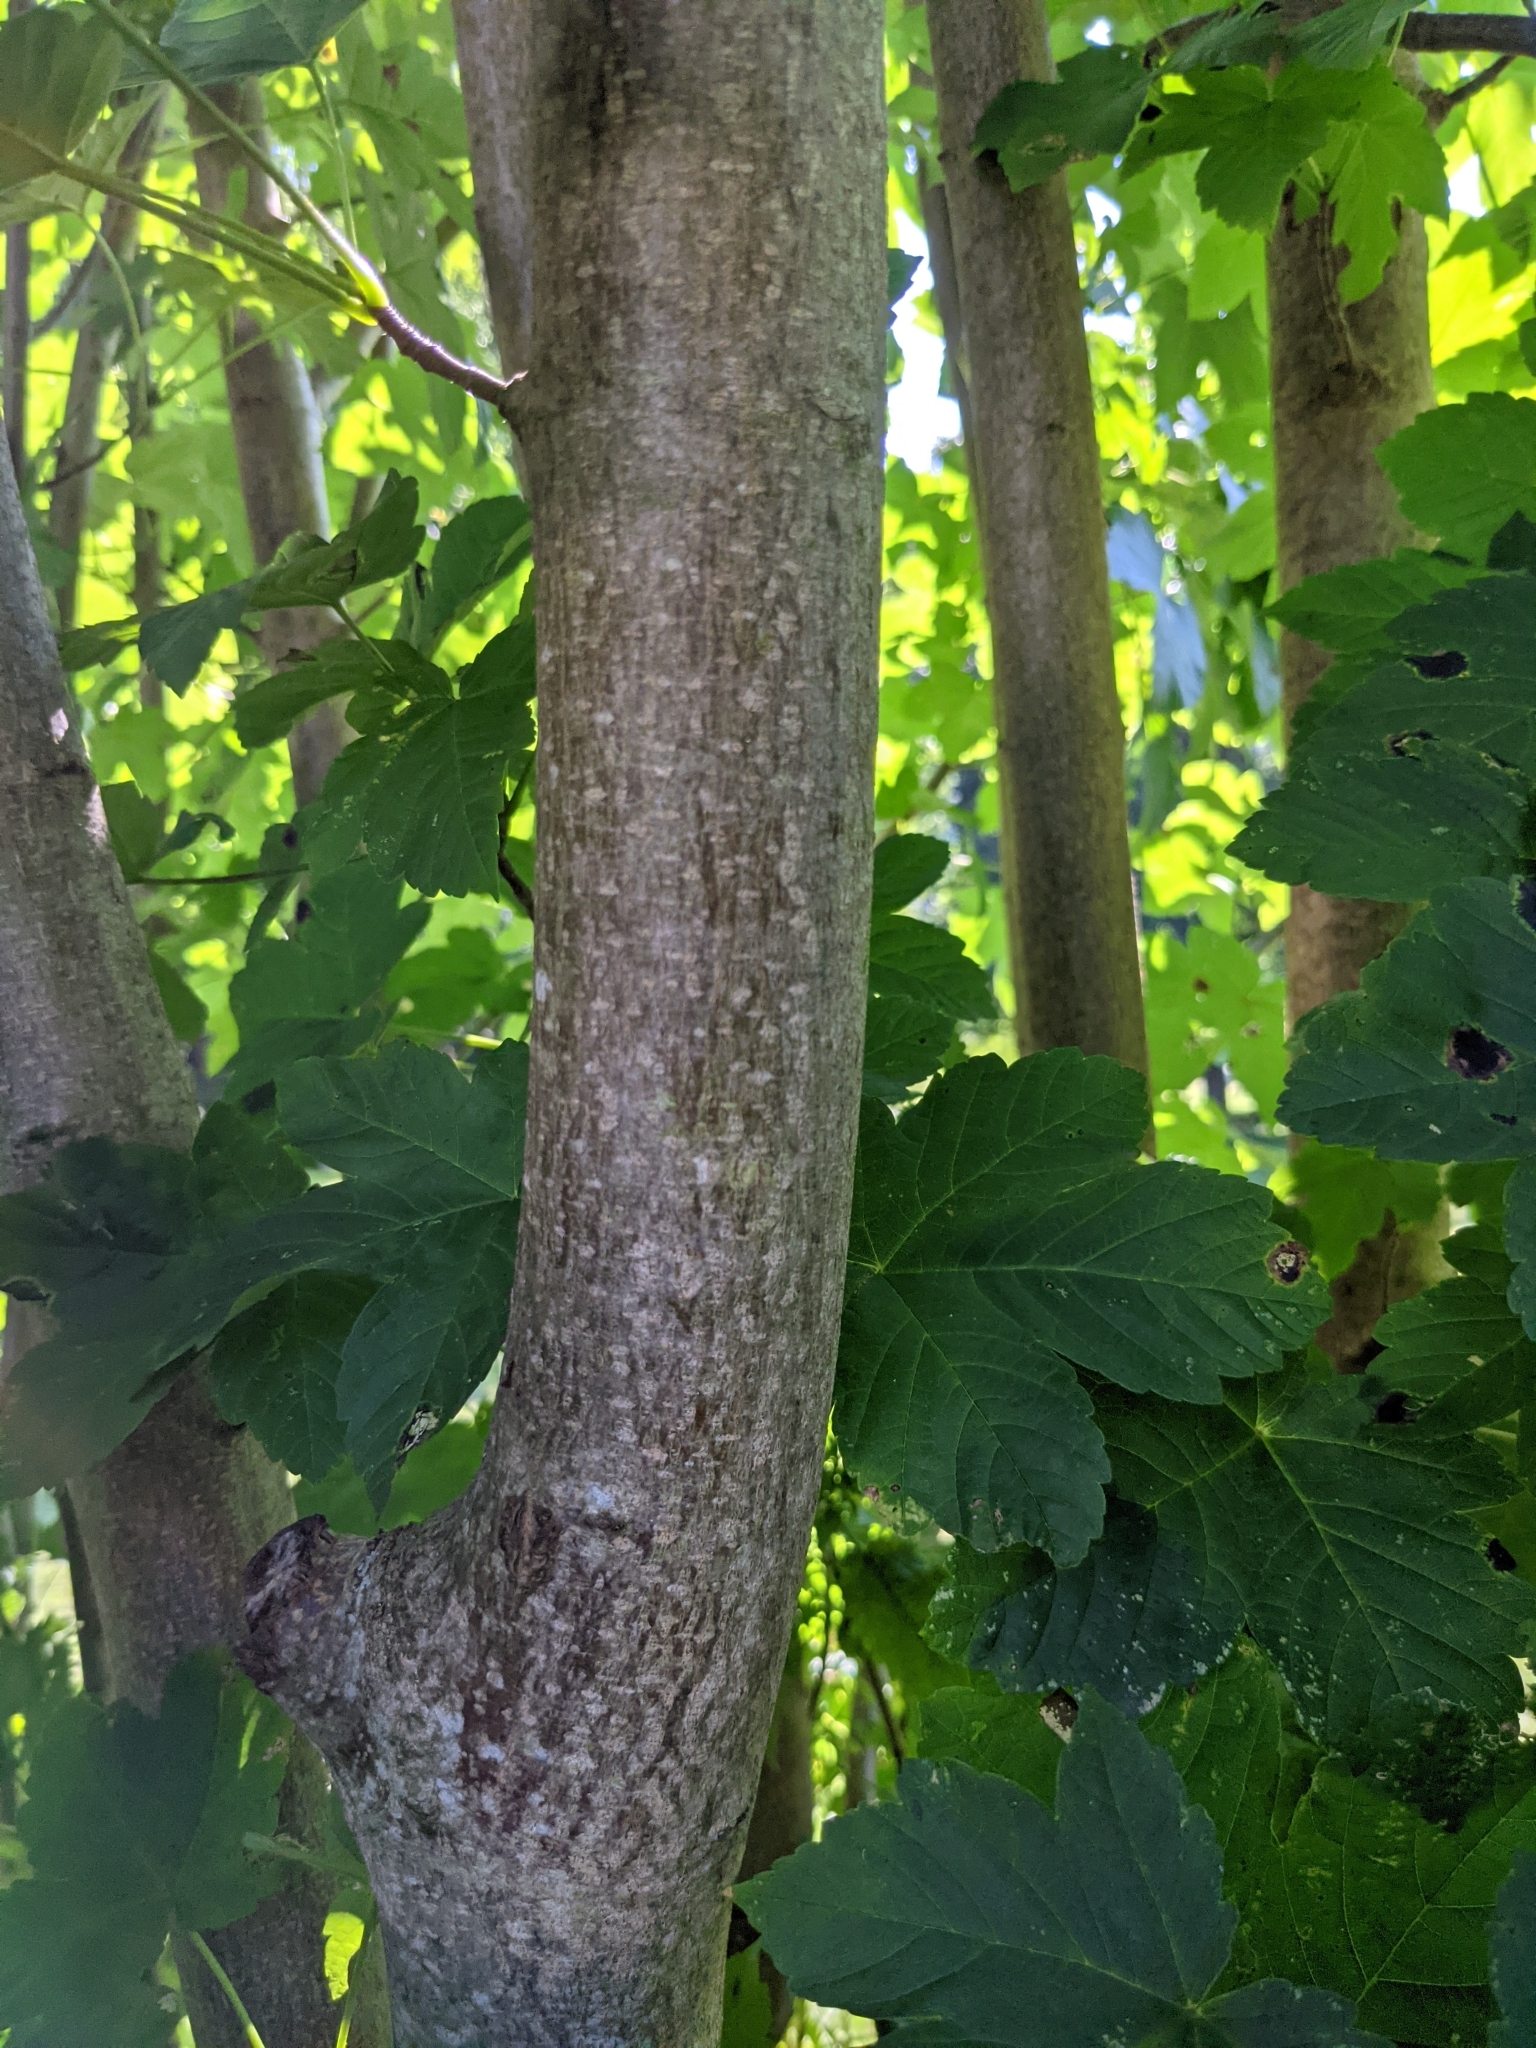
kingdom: Plantae
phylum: Tracheophyta
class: Magnoliopsida
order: Sapindales
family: Sapindaceae
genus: Acer
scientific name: Acer pseudoplatanus
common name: Sycamore
